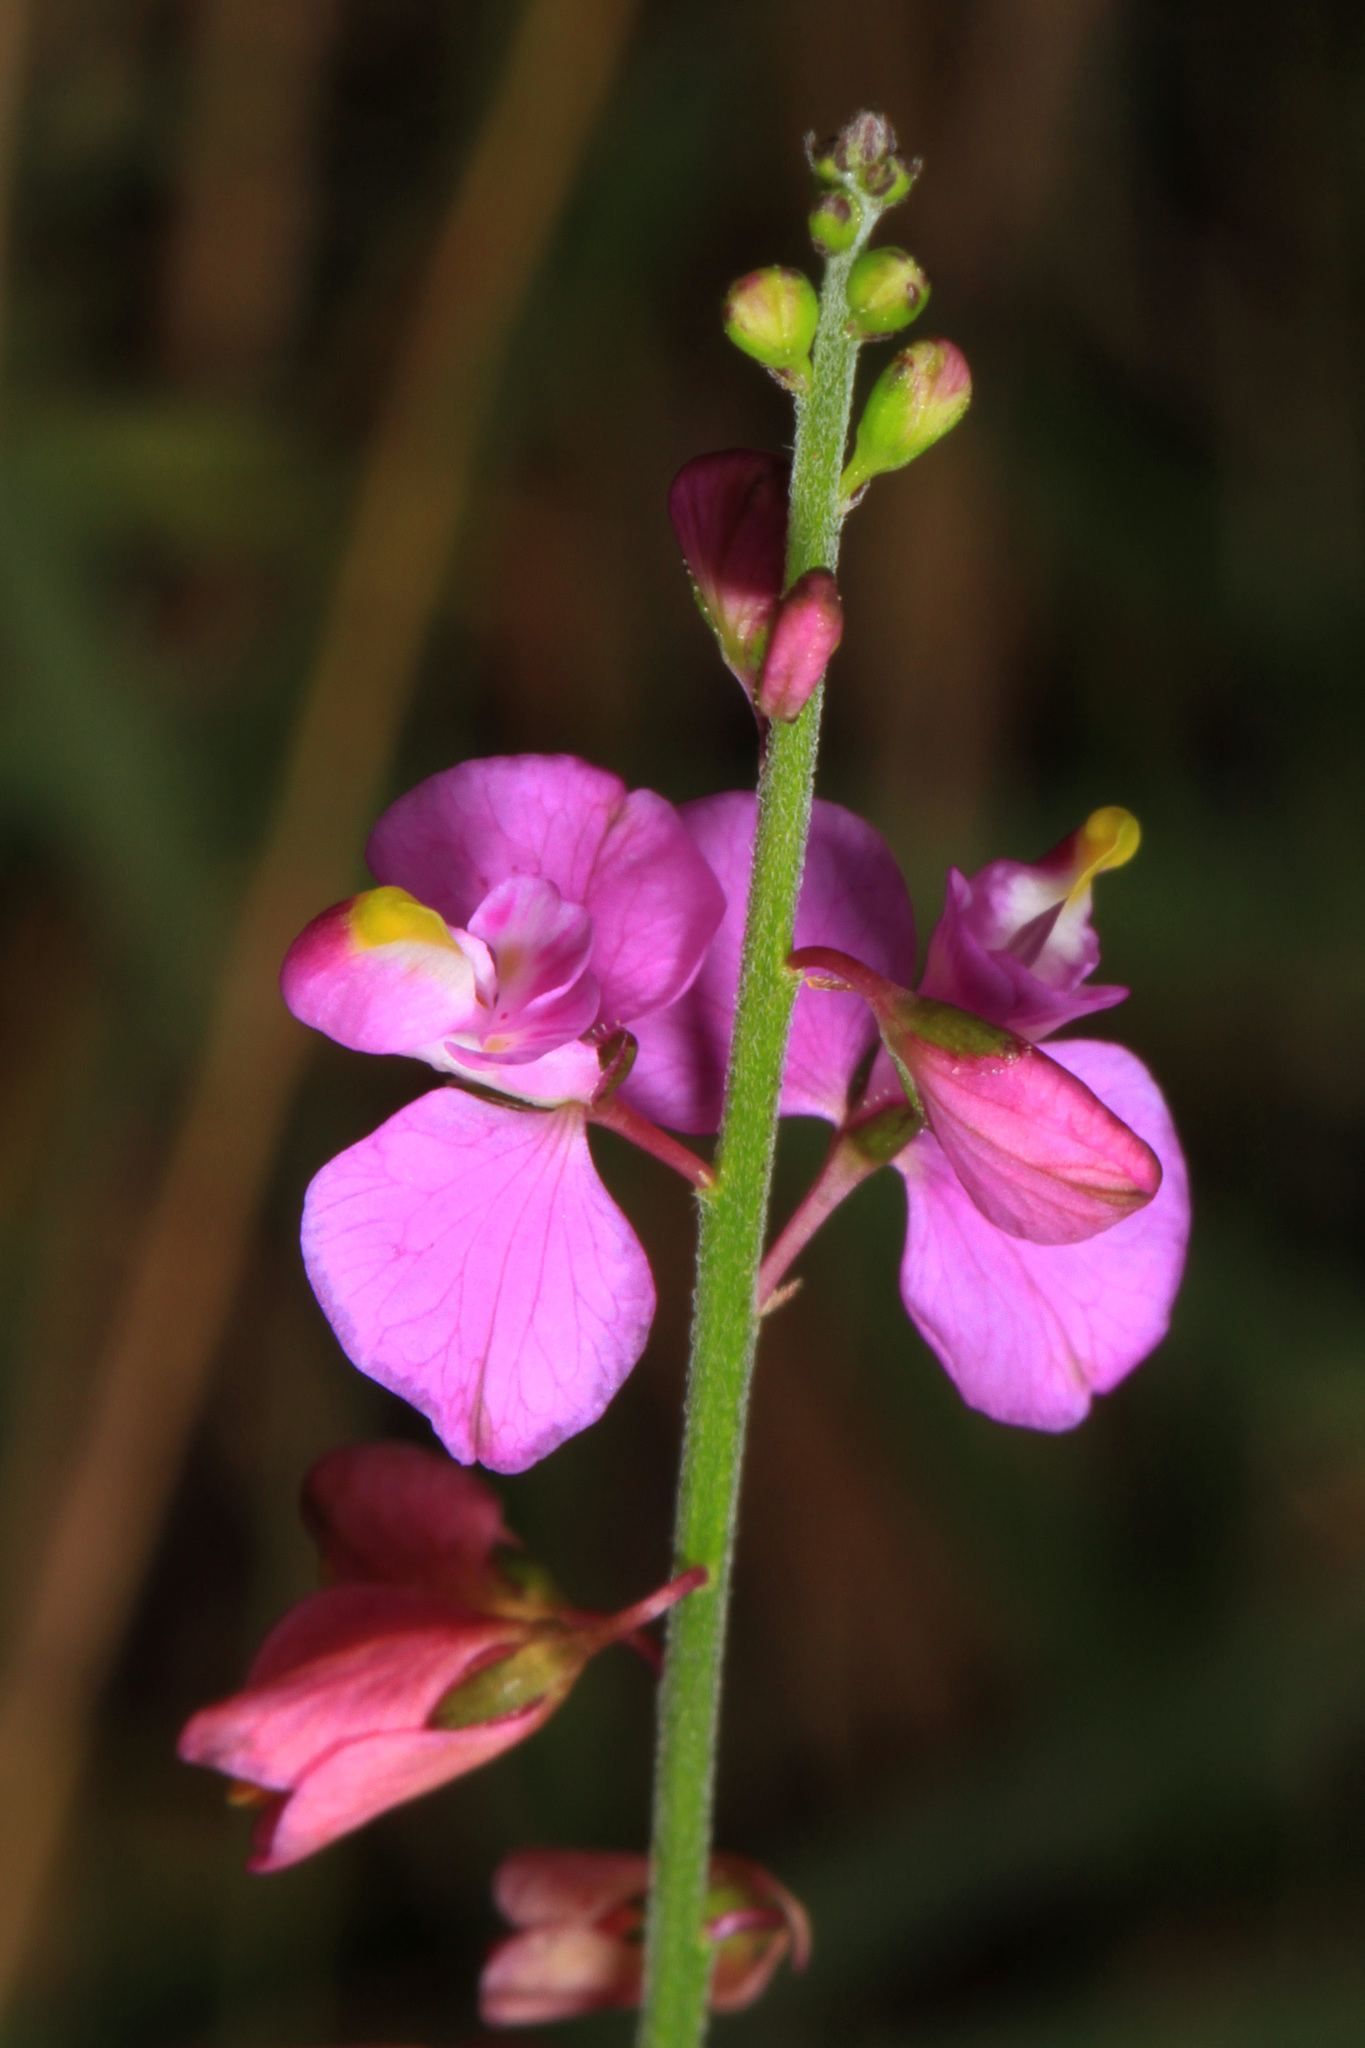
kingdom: Plantae
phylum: Tracheophyta
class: Magnoliopsida
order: Fabales
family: Polygalaceae
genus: Asemeia
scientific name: Asemeia grandiflora
